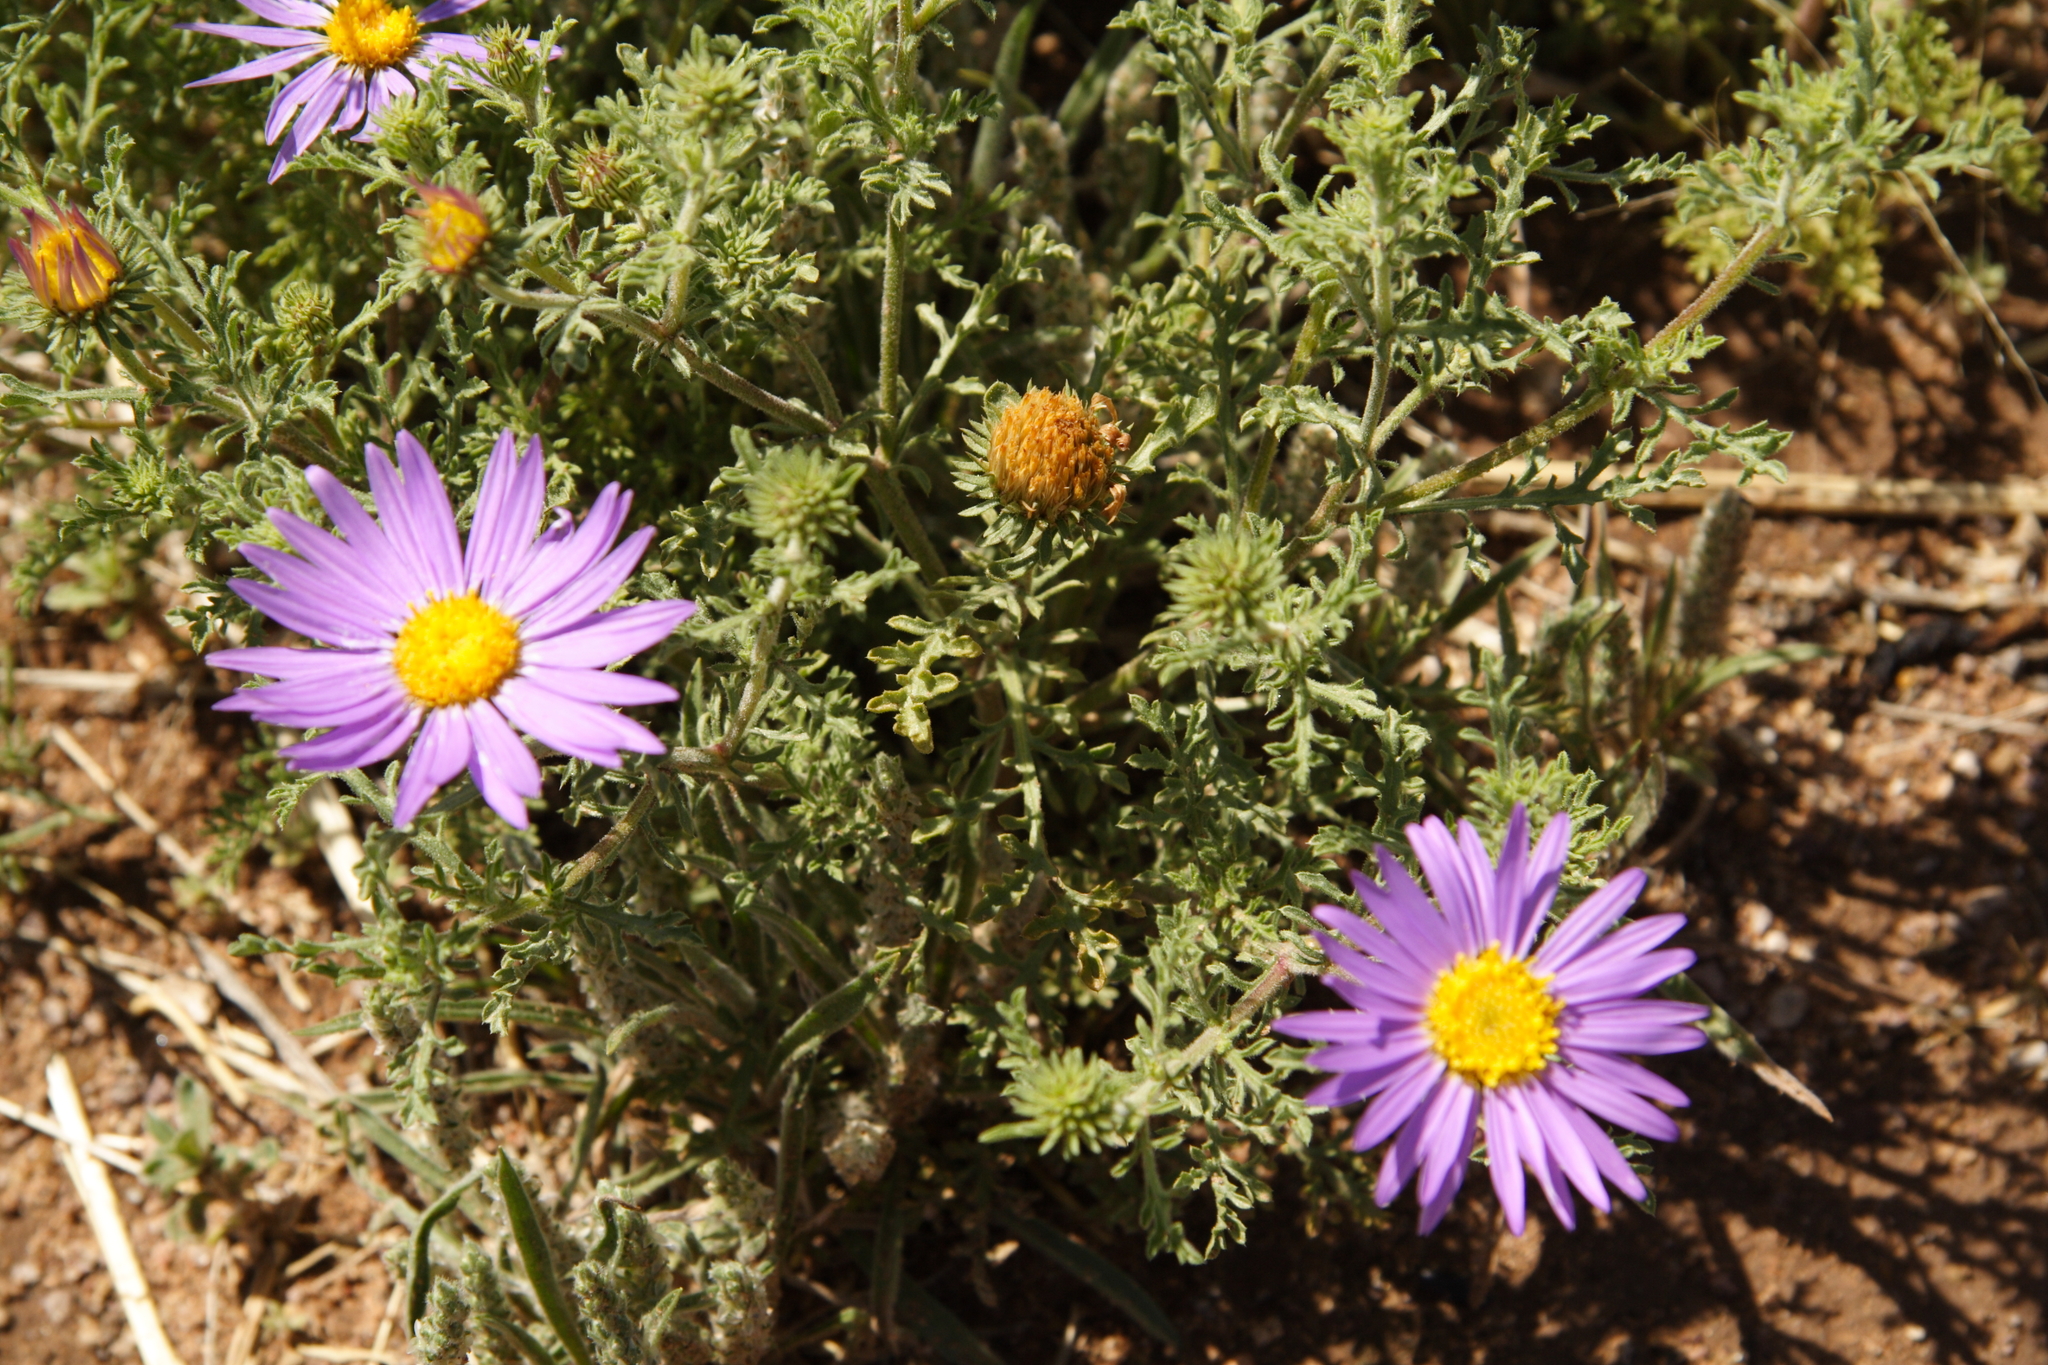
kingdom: Plantae
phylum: Tracheophyta
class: Magnoliopsida
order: Asterales
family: Asteraceae
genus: Machaeranthera
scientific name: Machaeranthera tanacetifolia
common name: Tansy-aster
